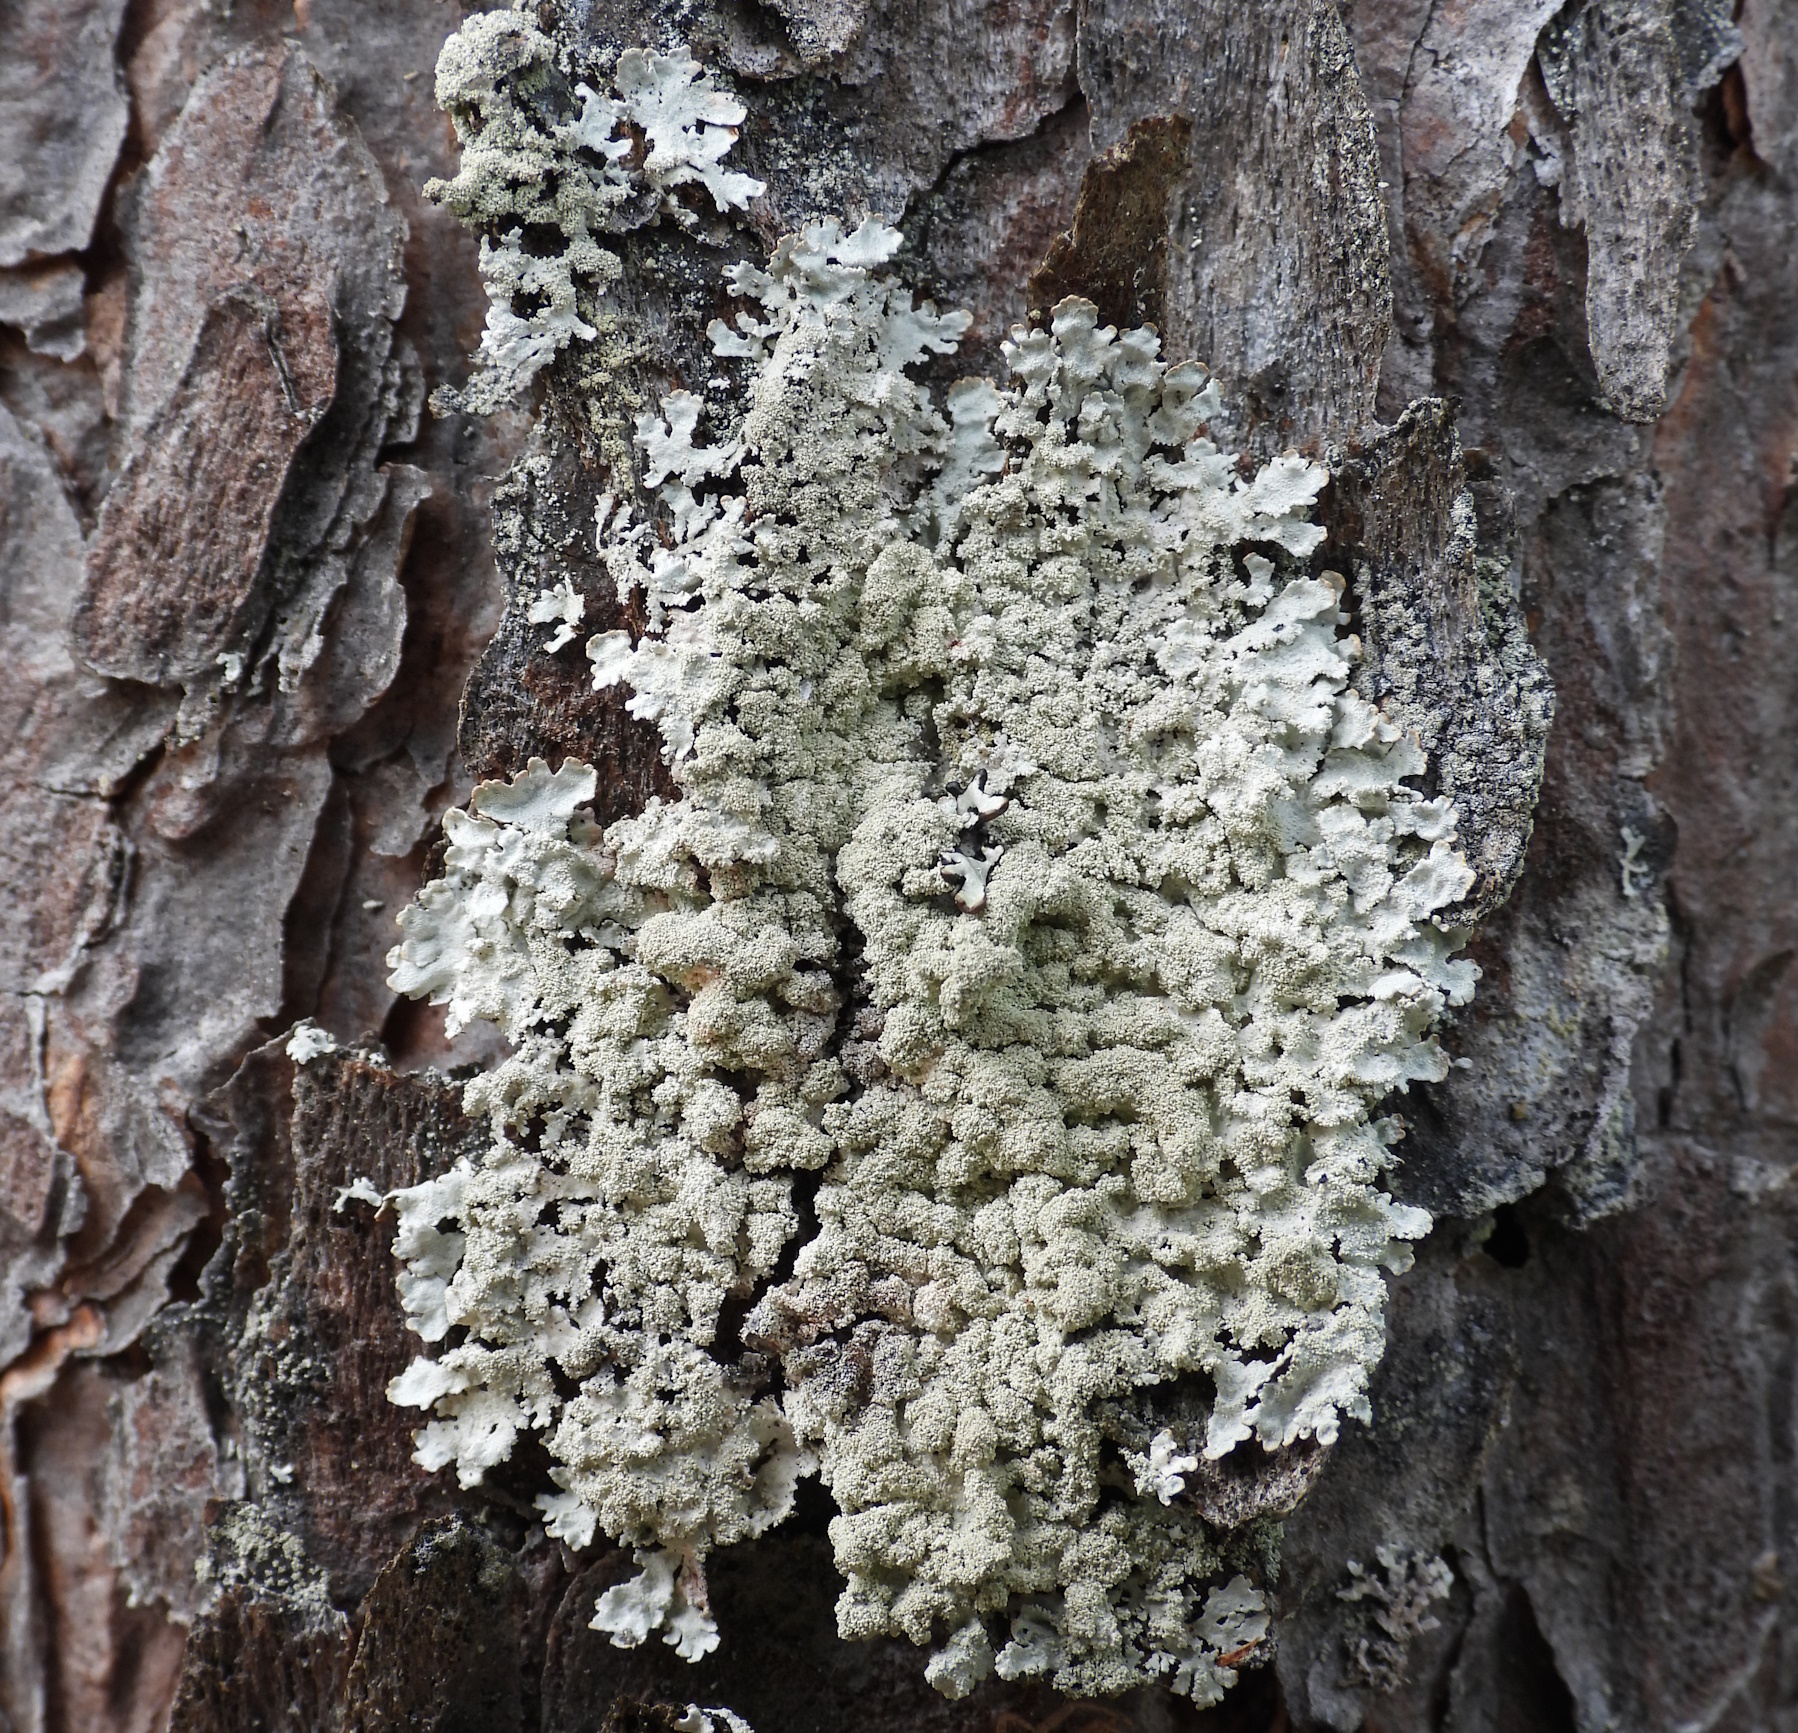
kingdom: Fungi
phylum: Ascomycota
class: Lecanoromycetes
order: Lecanorales
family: Parmeliaceae
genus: Imshaugia
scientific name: Imshaugia aleurites
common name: Salted starburst lichen
